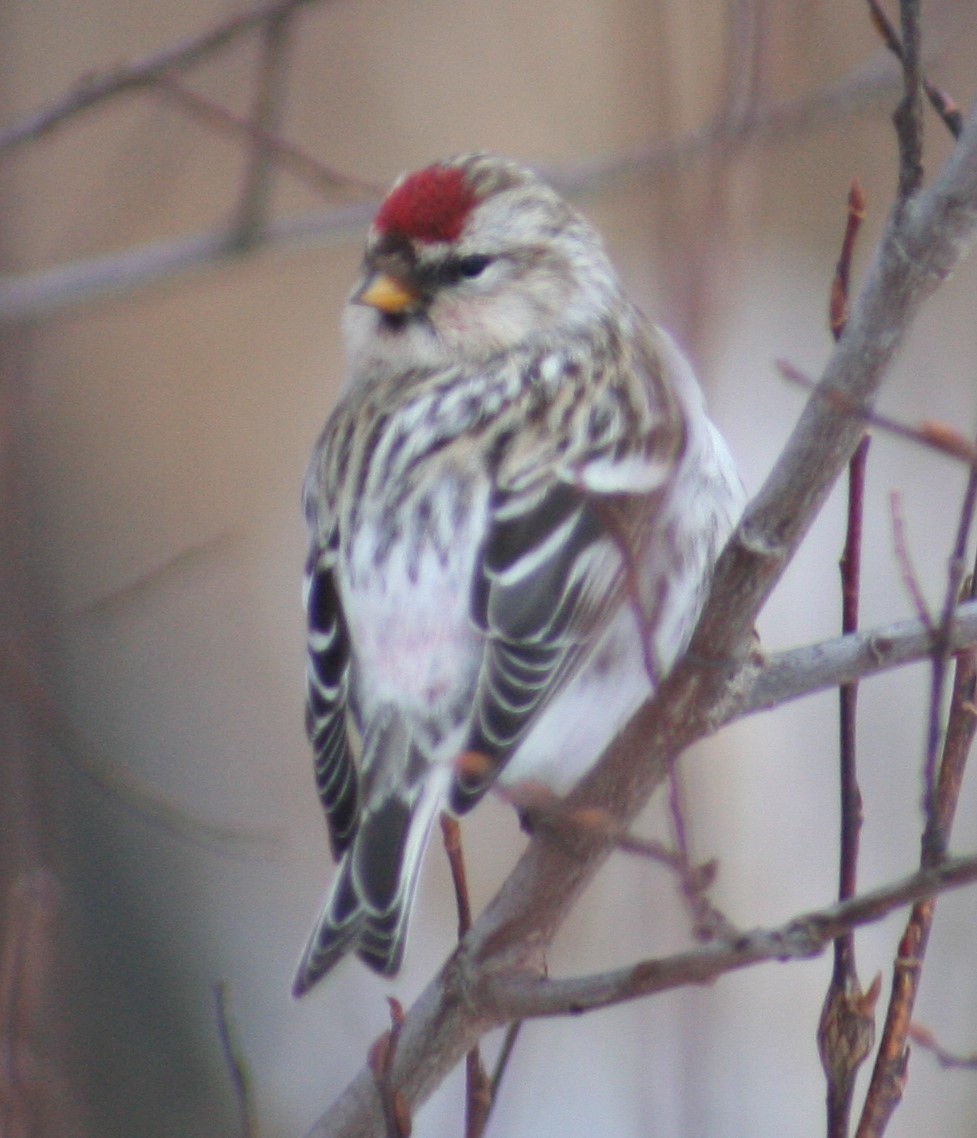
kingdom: Animalia
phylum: Chordata
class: Aves
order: Passeriformes
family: Fringillidae
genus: Acanthis
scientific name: Acanthis flammea
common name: Common redpoll
